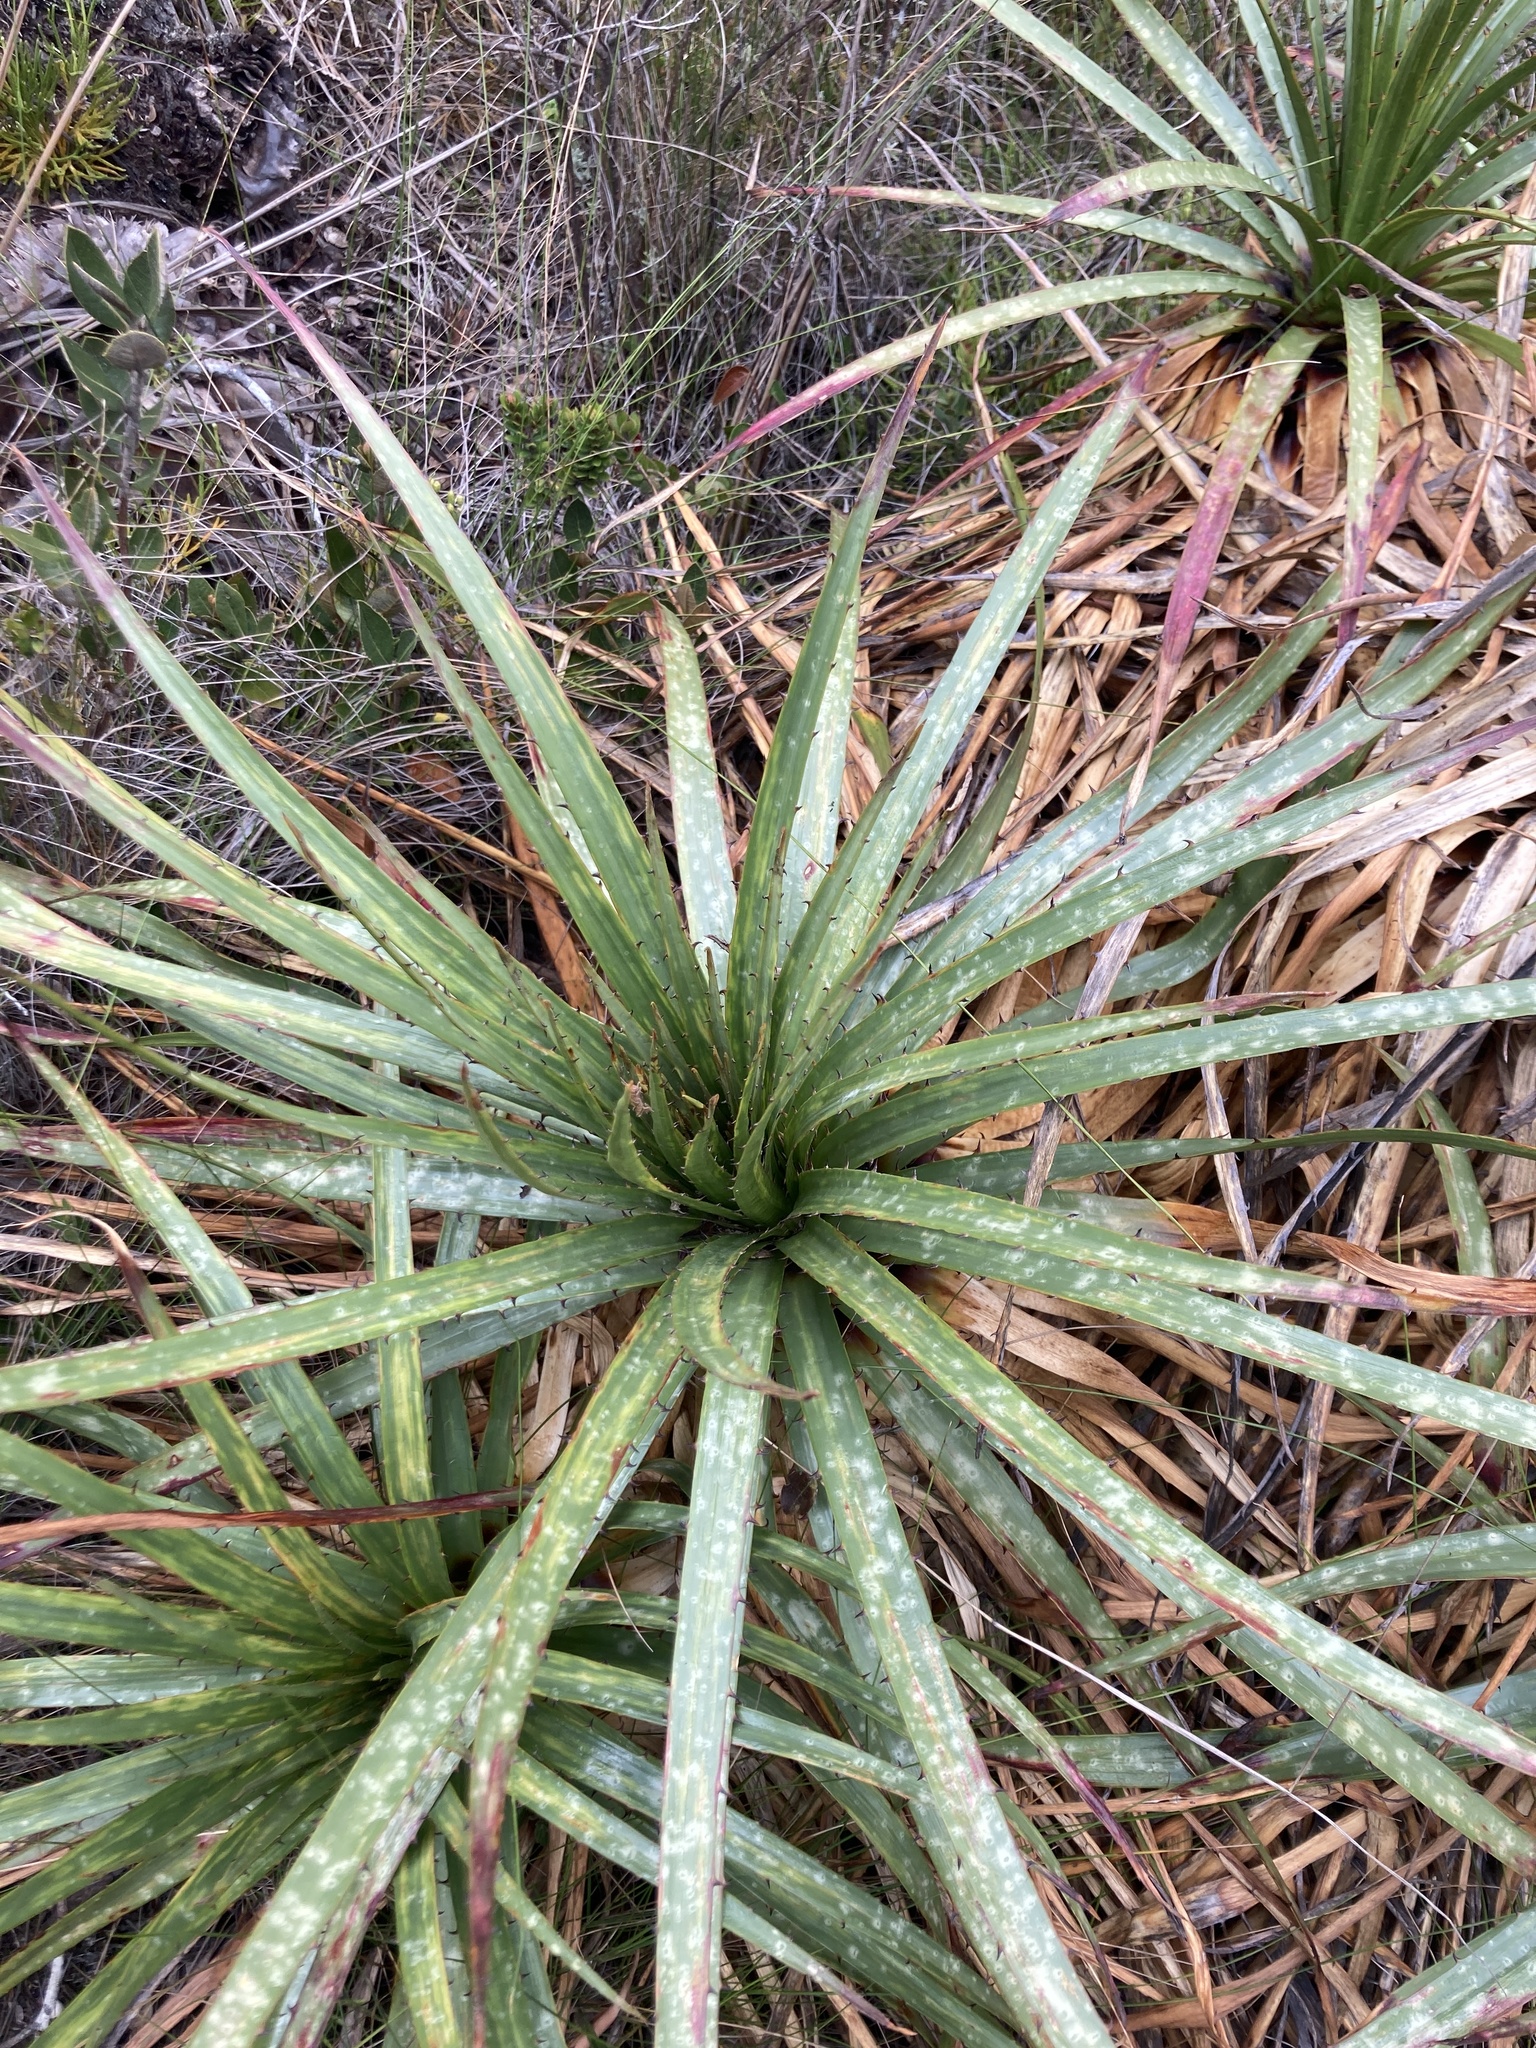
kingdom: Plantae
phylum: Tracheophyta
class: Liliopsida
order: Poales
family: Bromeliaceae
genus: Puya
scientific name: Puya nitida
